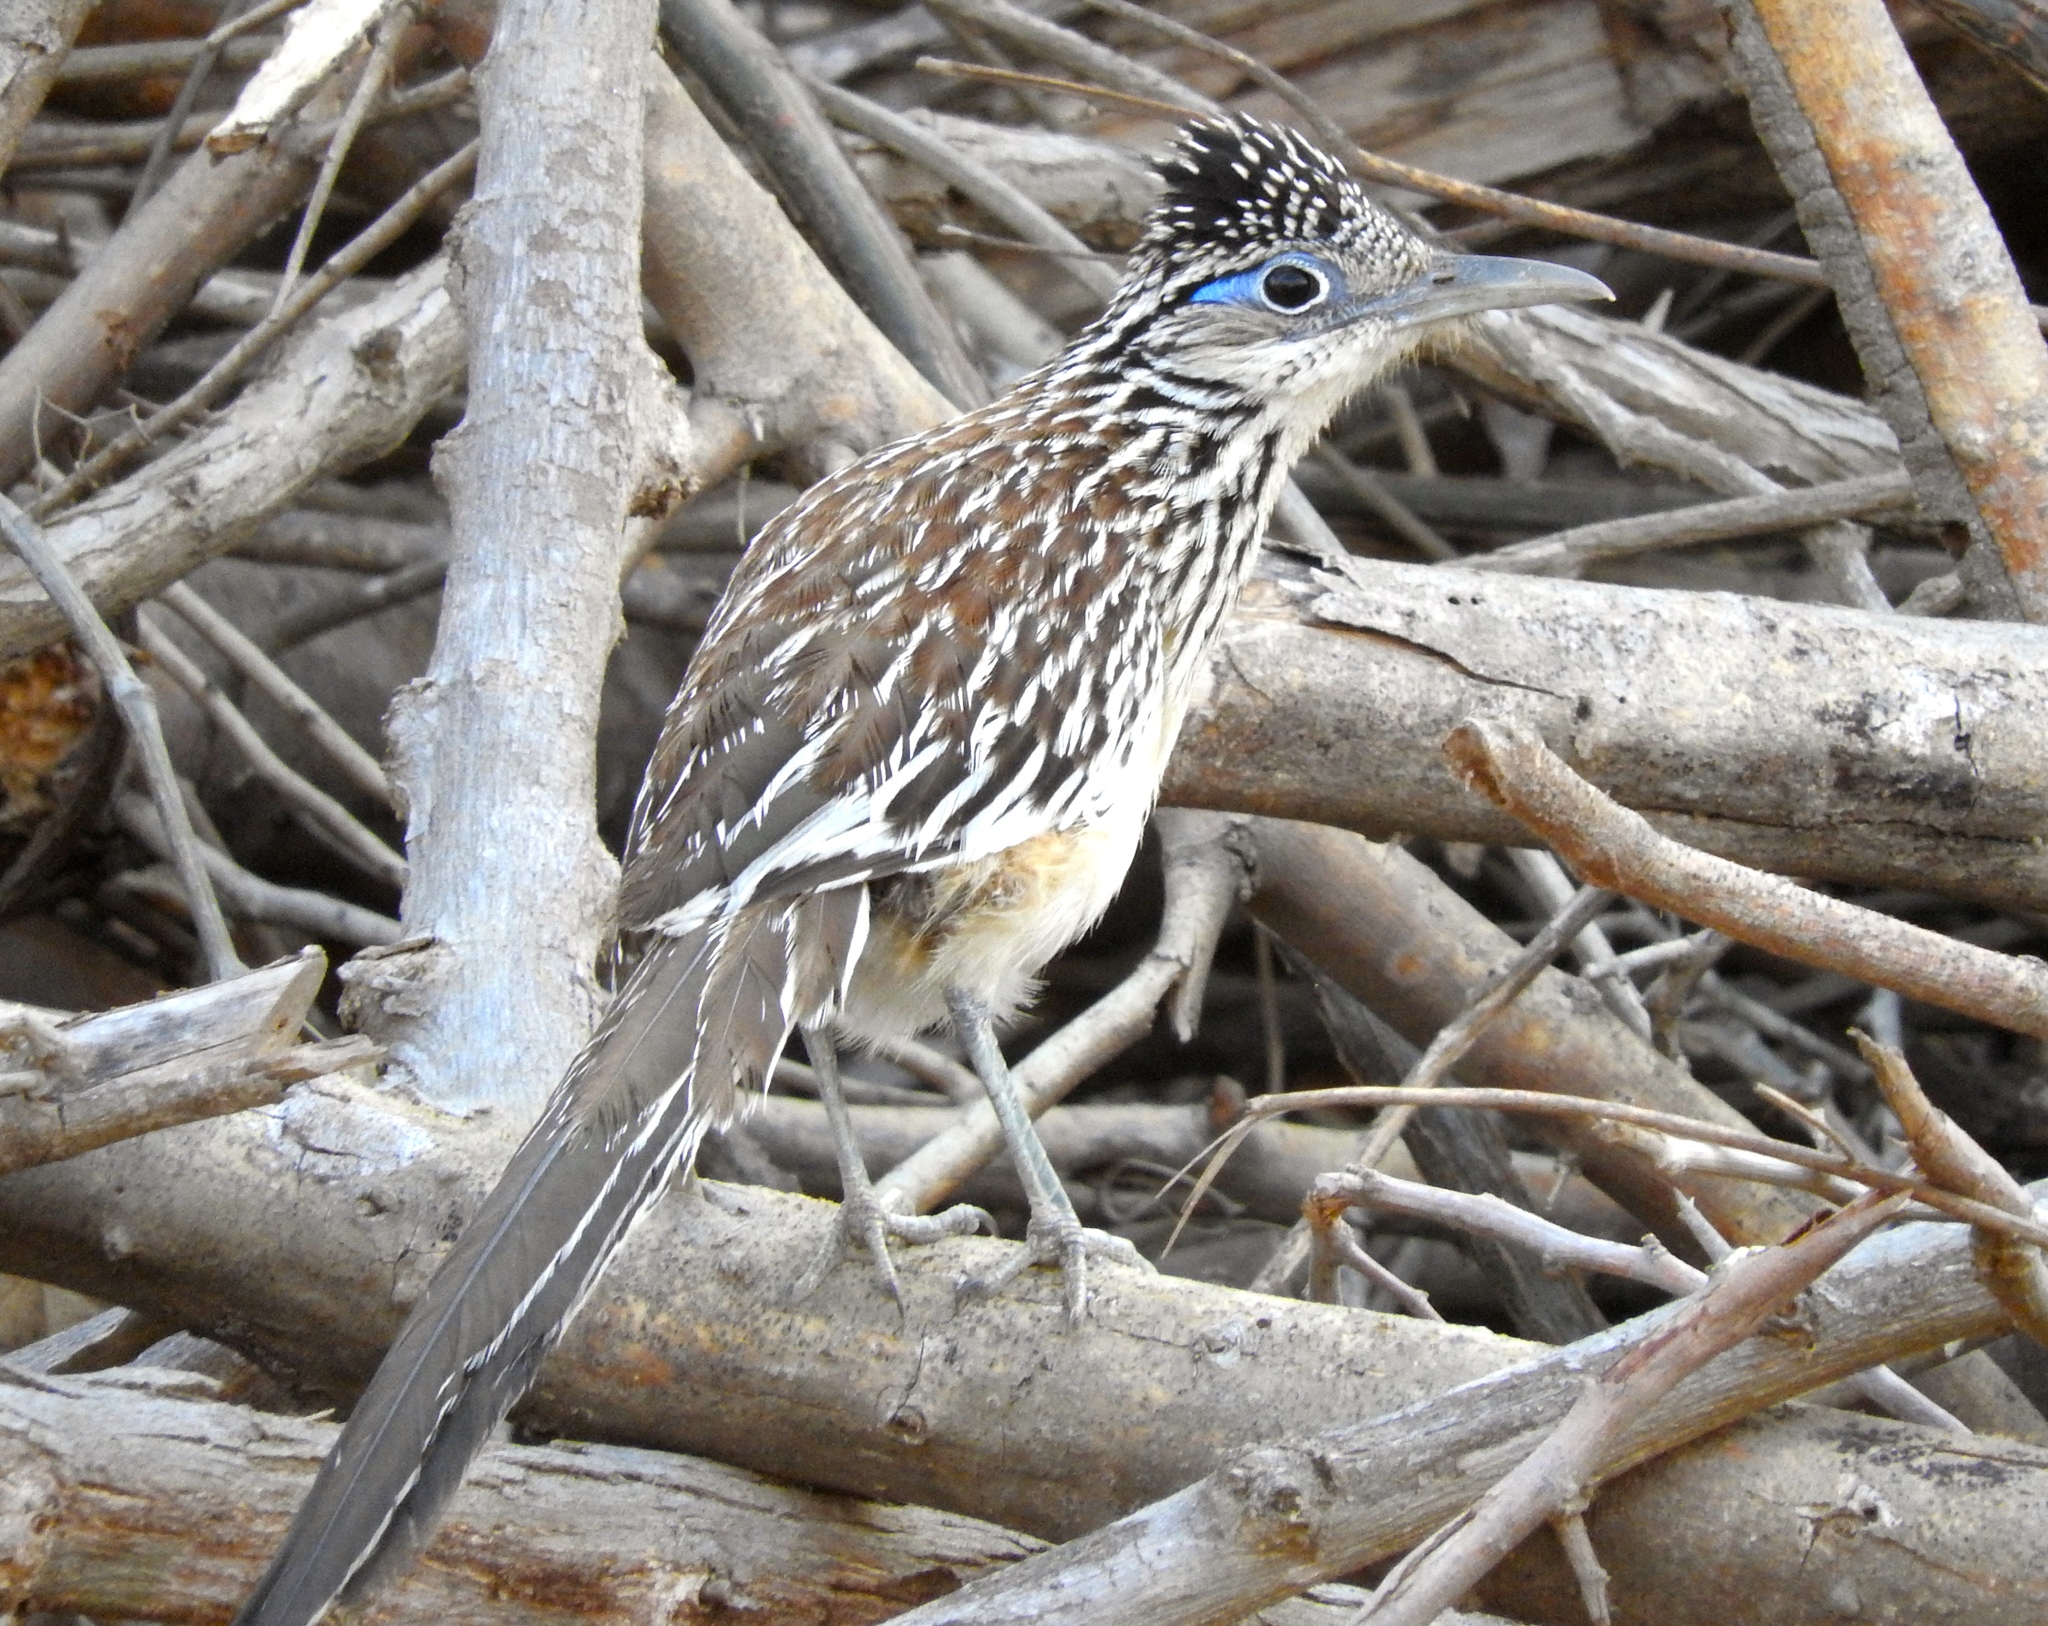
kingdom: Animalia
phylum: Chordata
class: Aves
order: Cuculiformes
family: Cuculidae
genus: Geococcyx
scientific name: Geococcyx velox
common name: Lesser roadrunner
